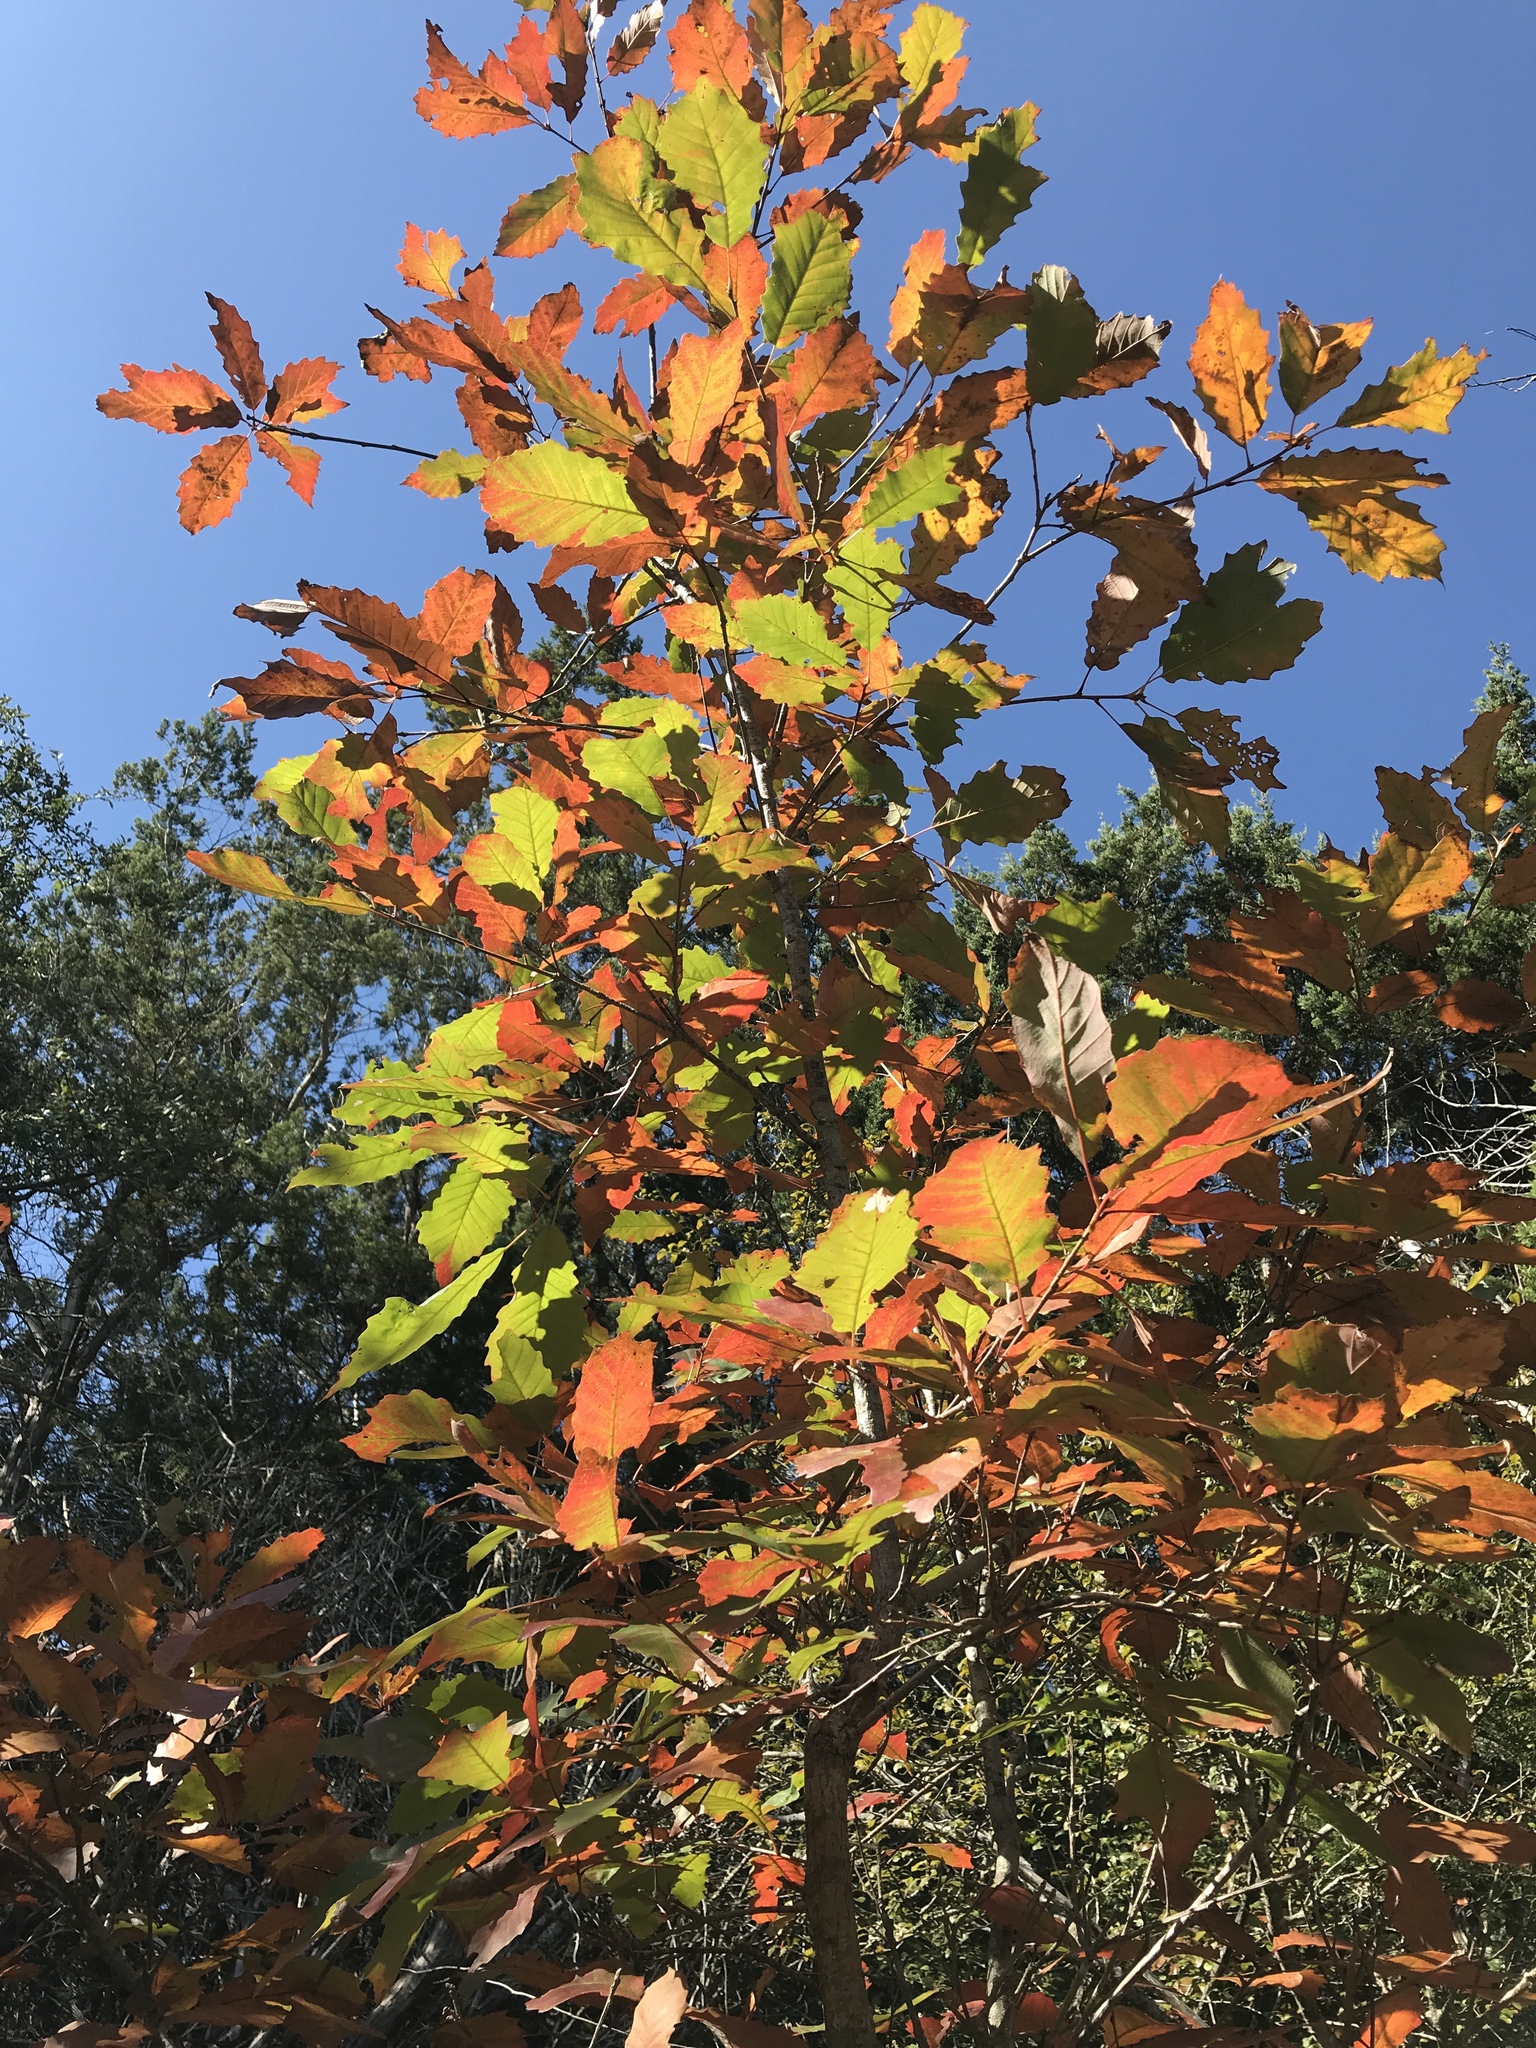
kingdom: Plantae
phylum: Tracheophyta
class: Magnoliopsida
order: Fagales
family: Fagaceae
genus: Quercus
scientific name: Quercus muehlenbergii
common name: Chinkapin oak
